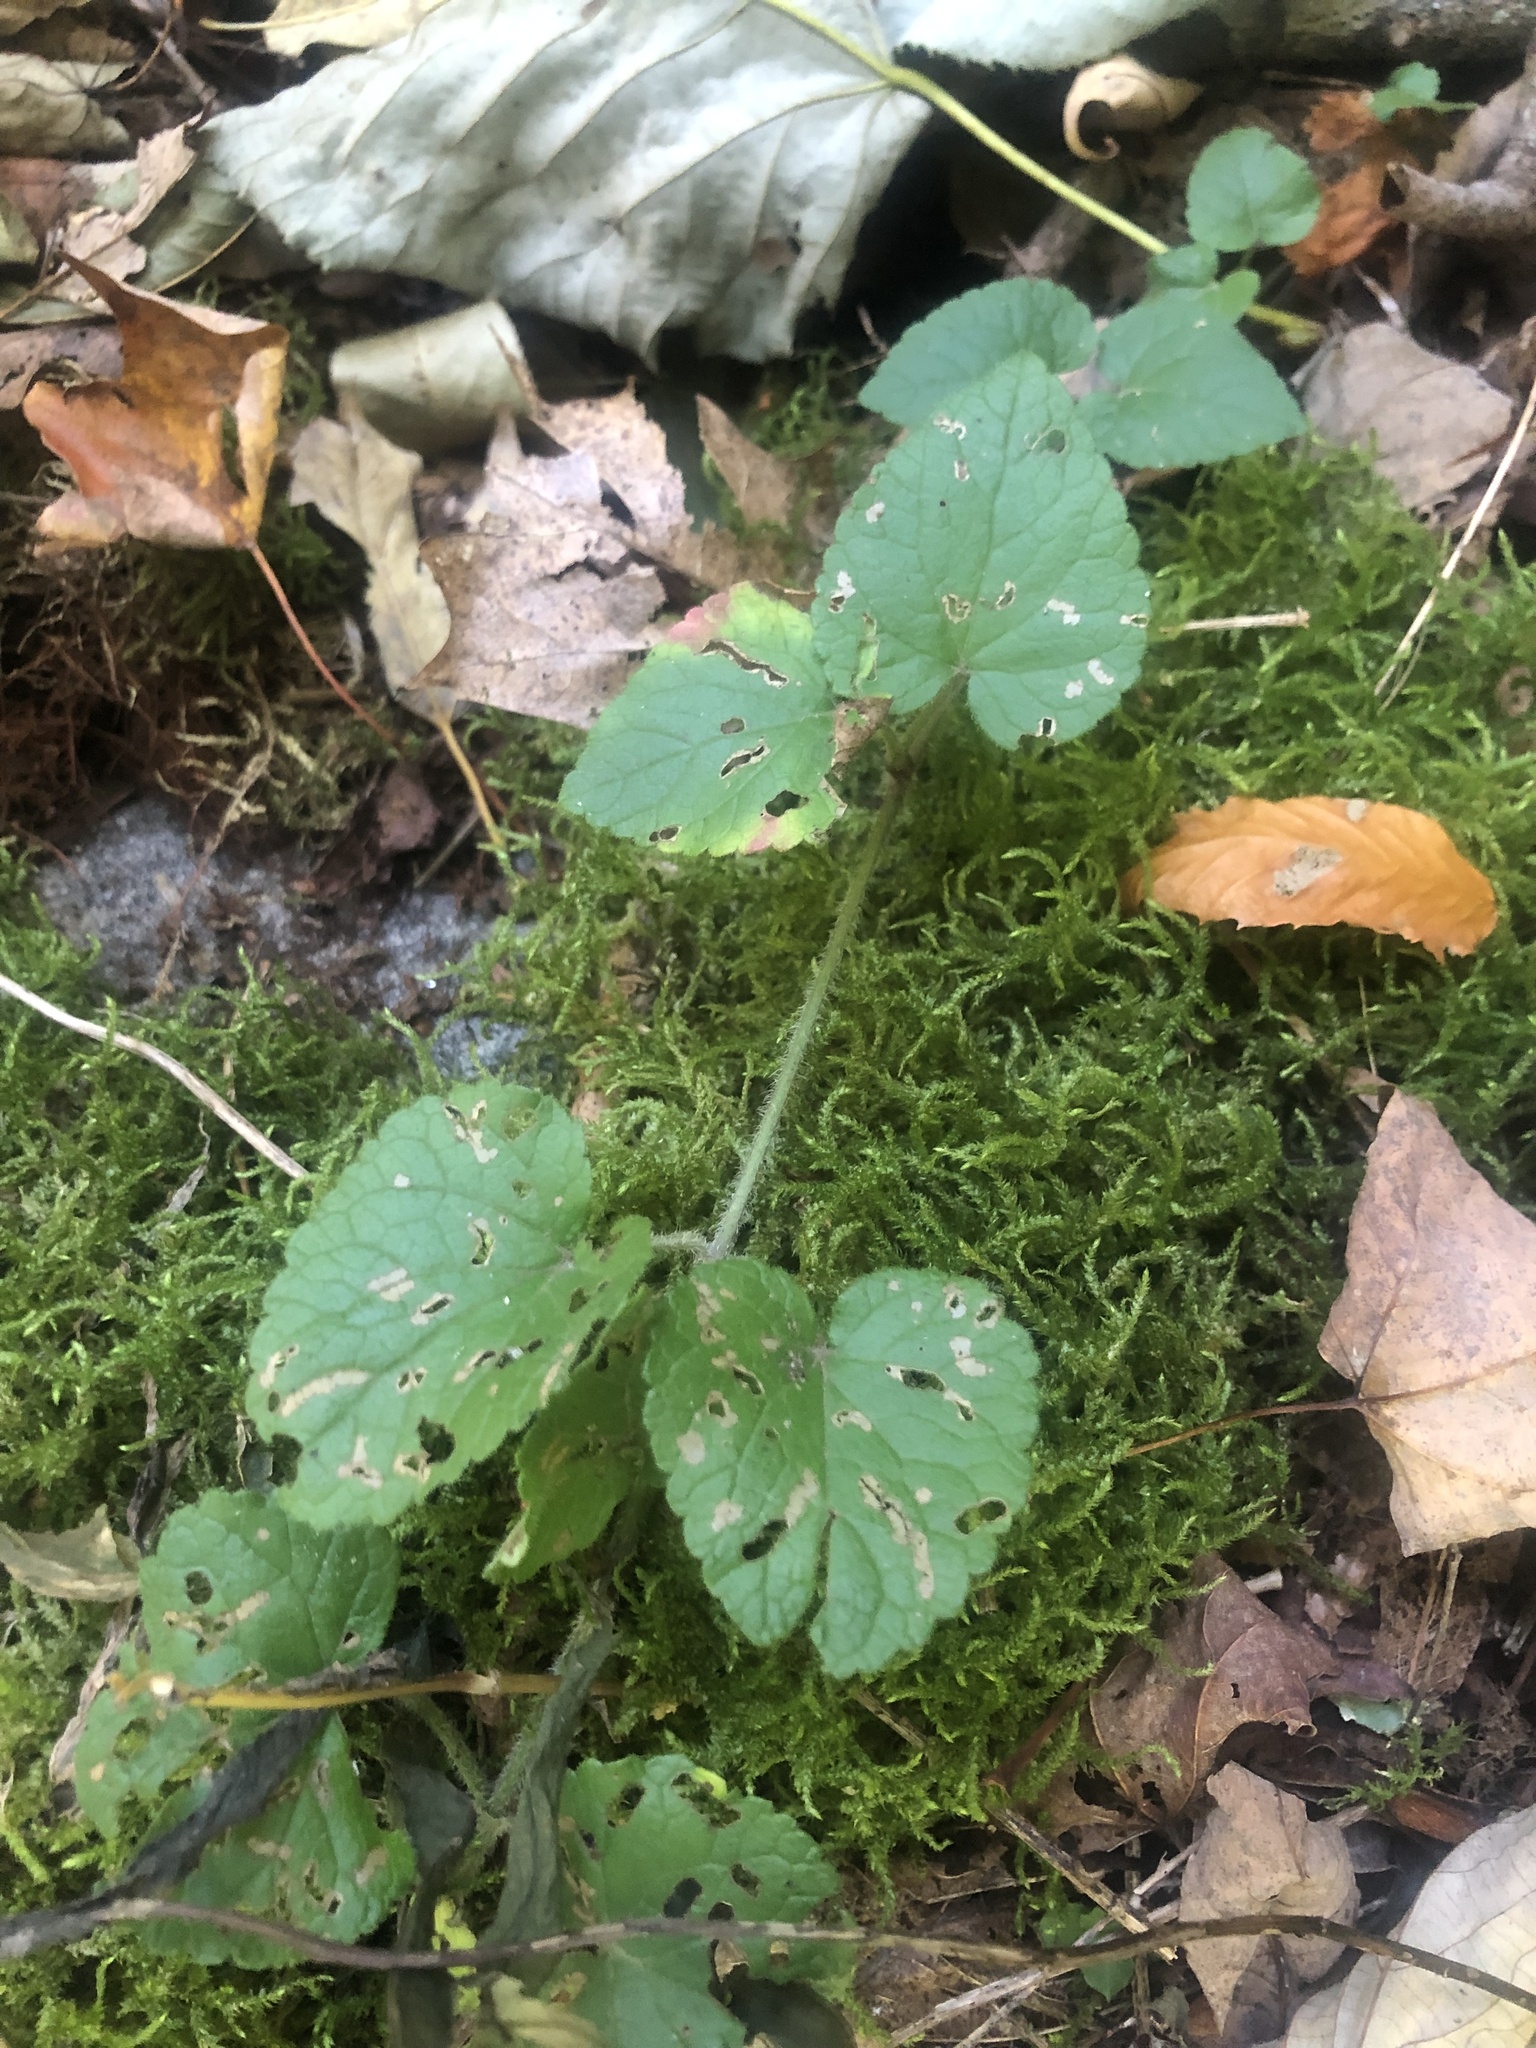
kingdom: Plantae
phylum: Tracheophyta
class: Magnoliopsida
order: Lamiales
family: Lamiaceae
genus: Meehania
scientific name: Meehania cordata
